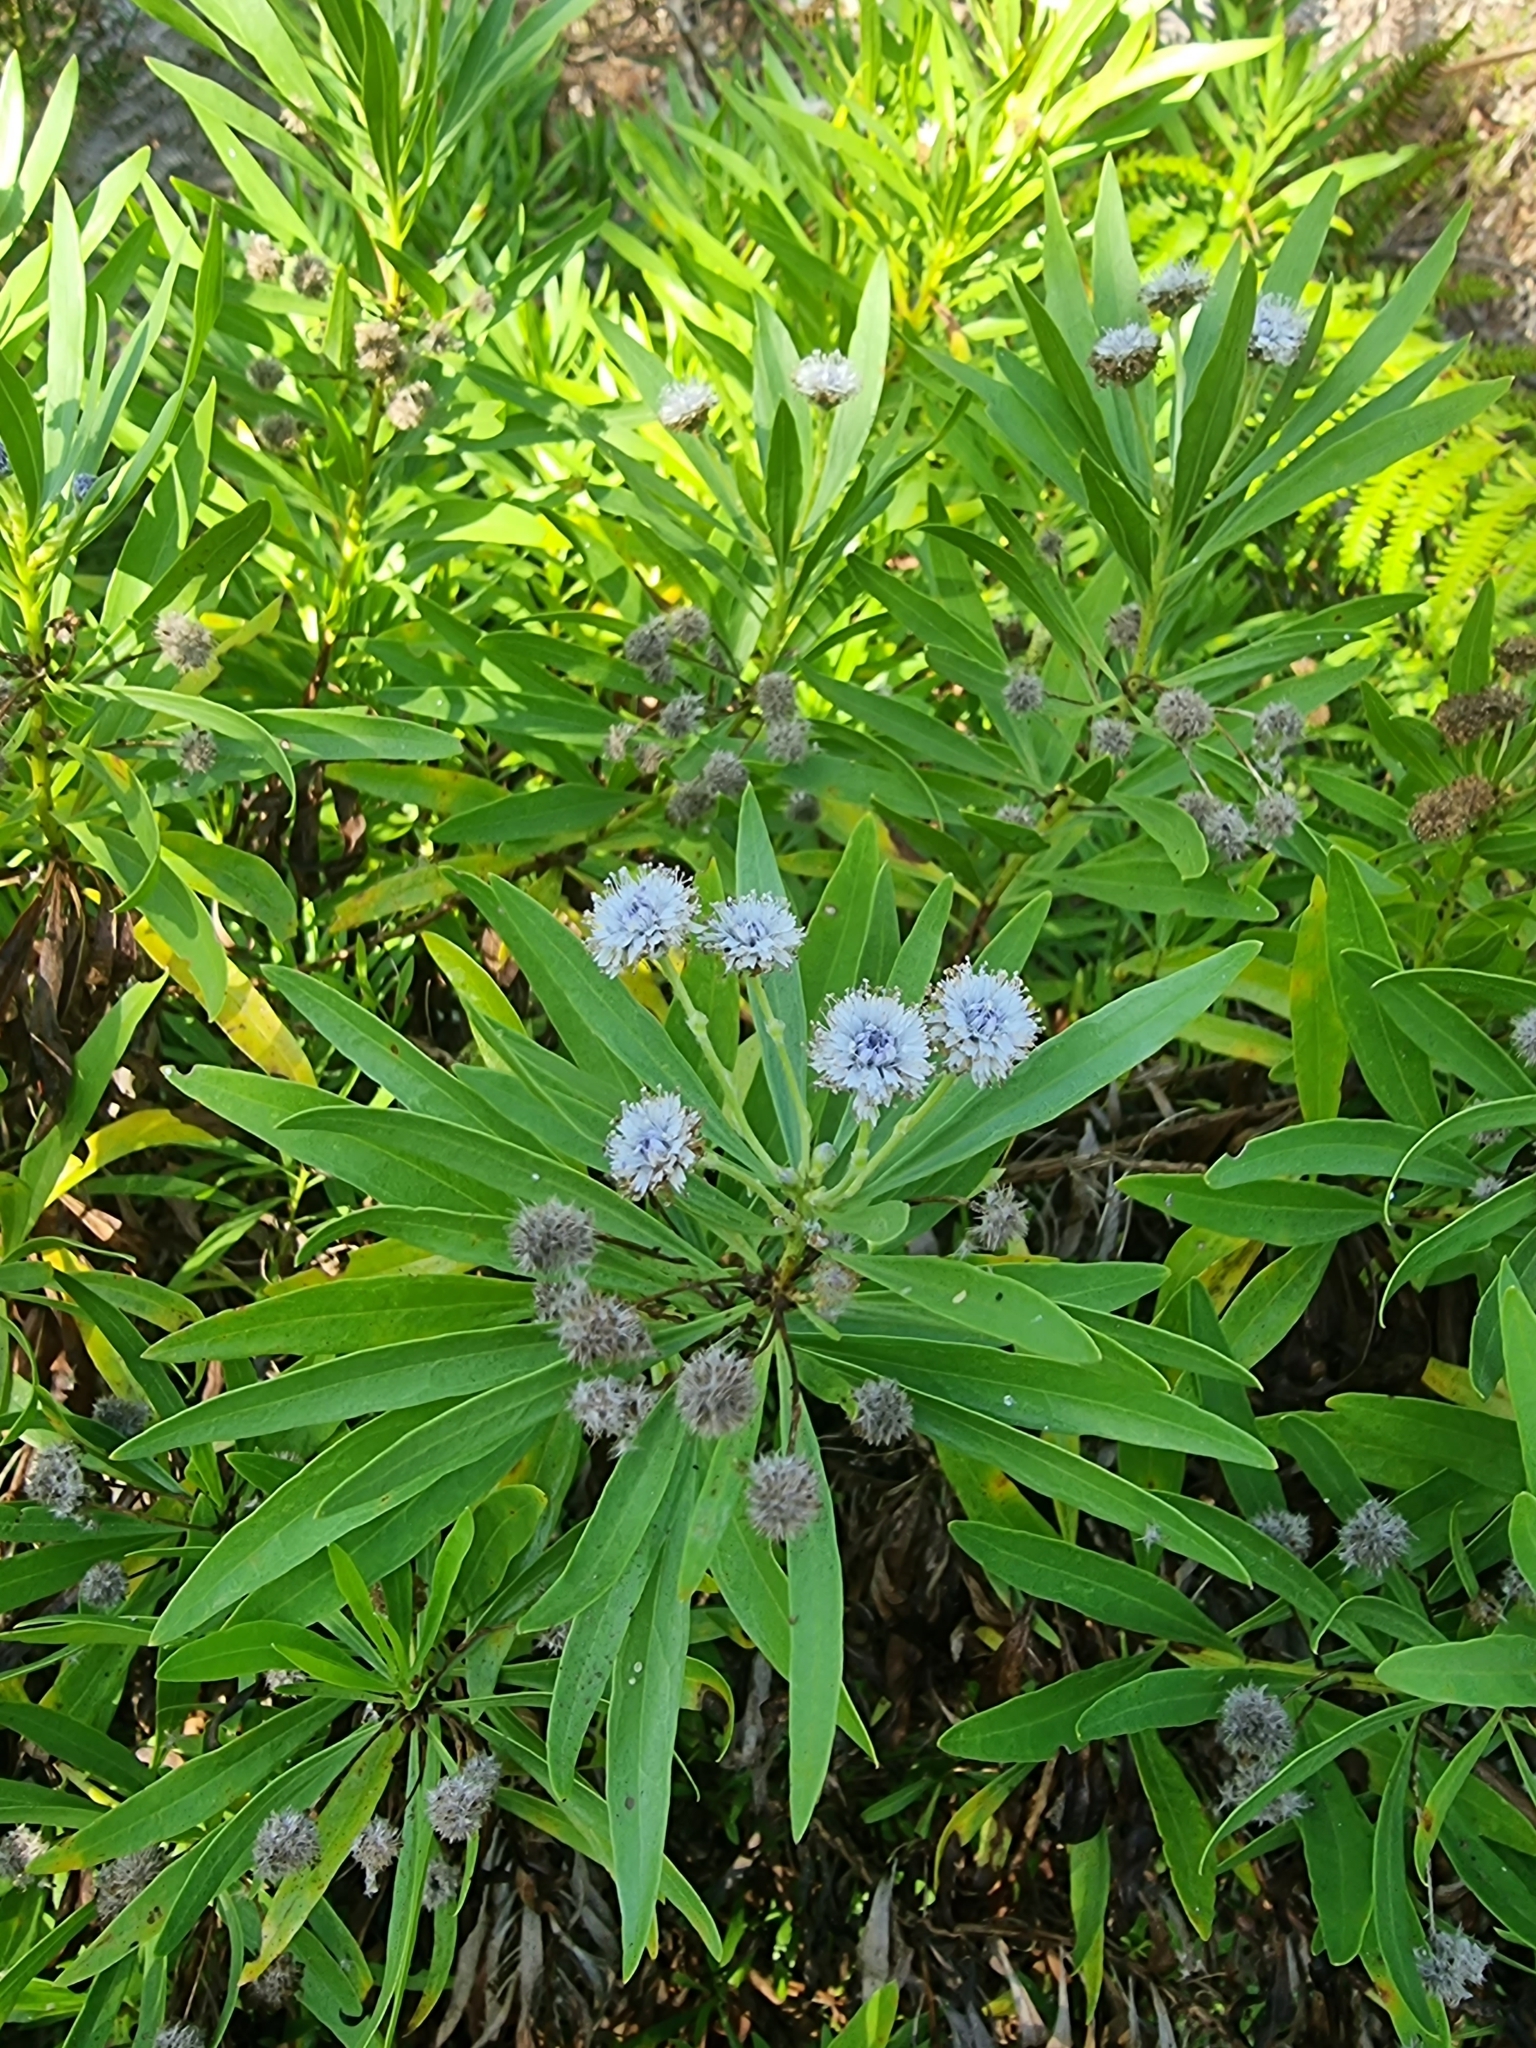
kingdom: Plantae
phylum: Tracheophyta
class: Magnoliopsida
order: Lamiales
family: Plantaginaceae
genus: Globularia
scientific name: Globularia salicina
